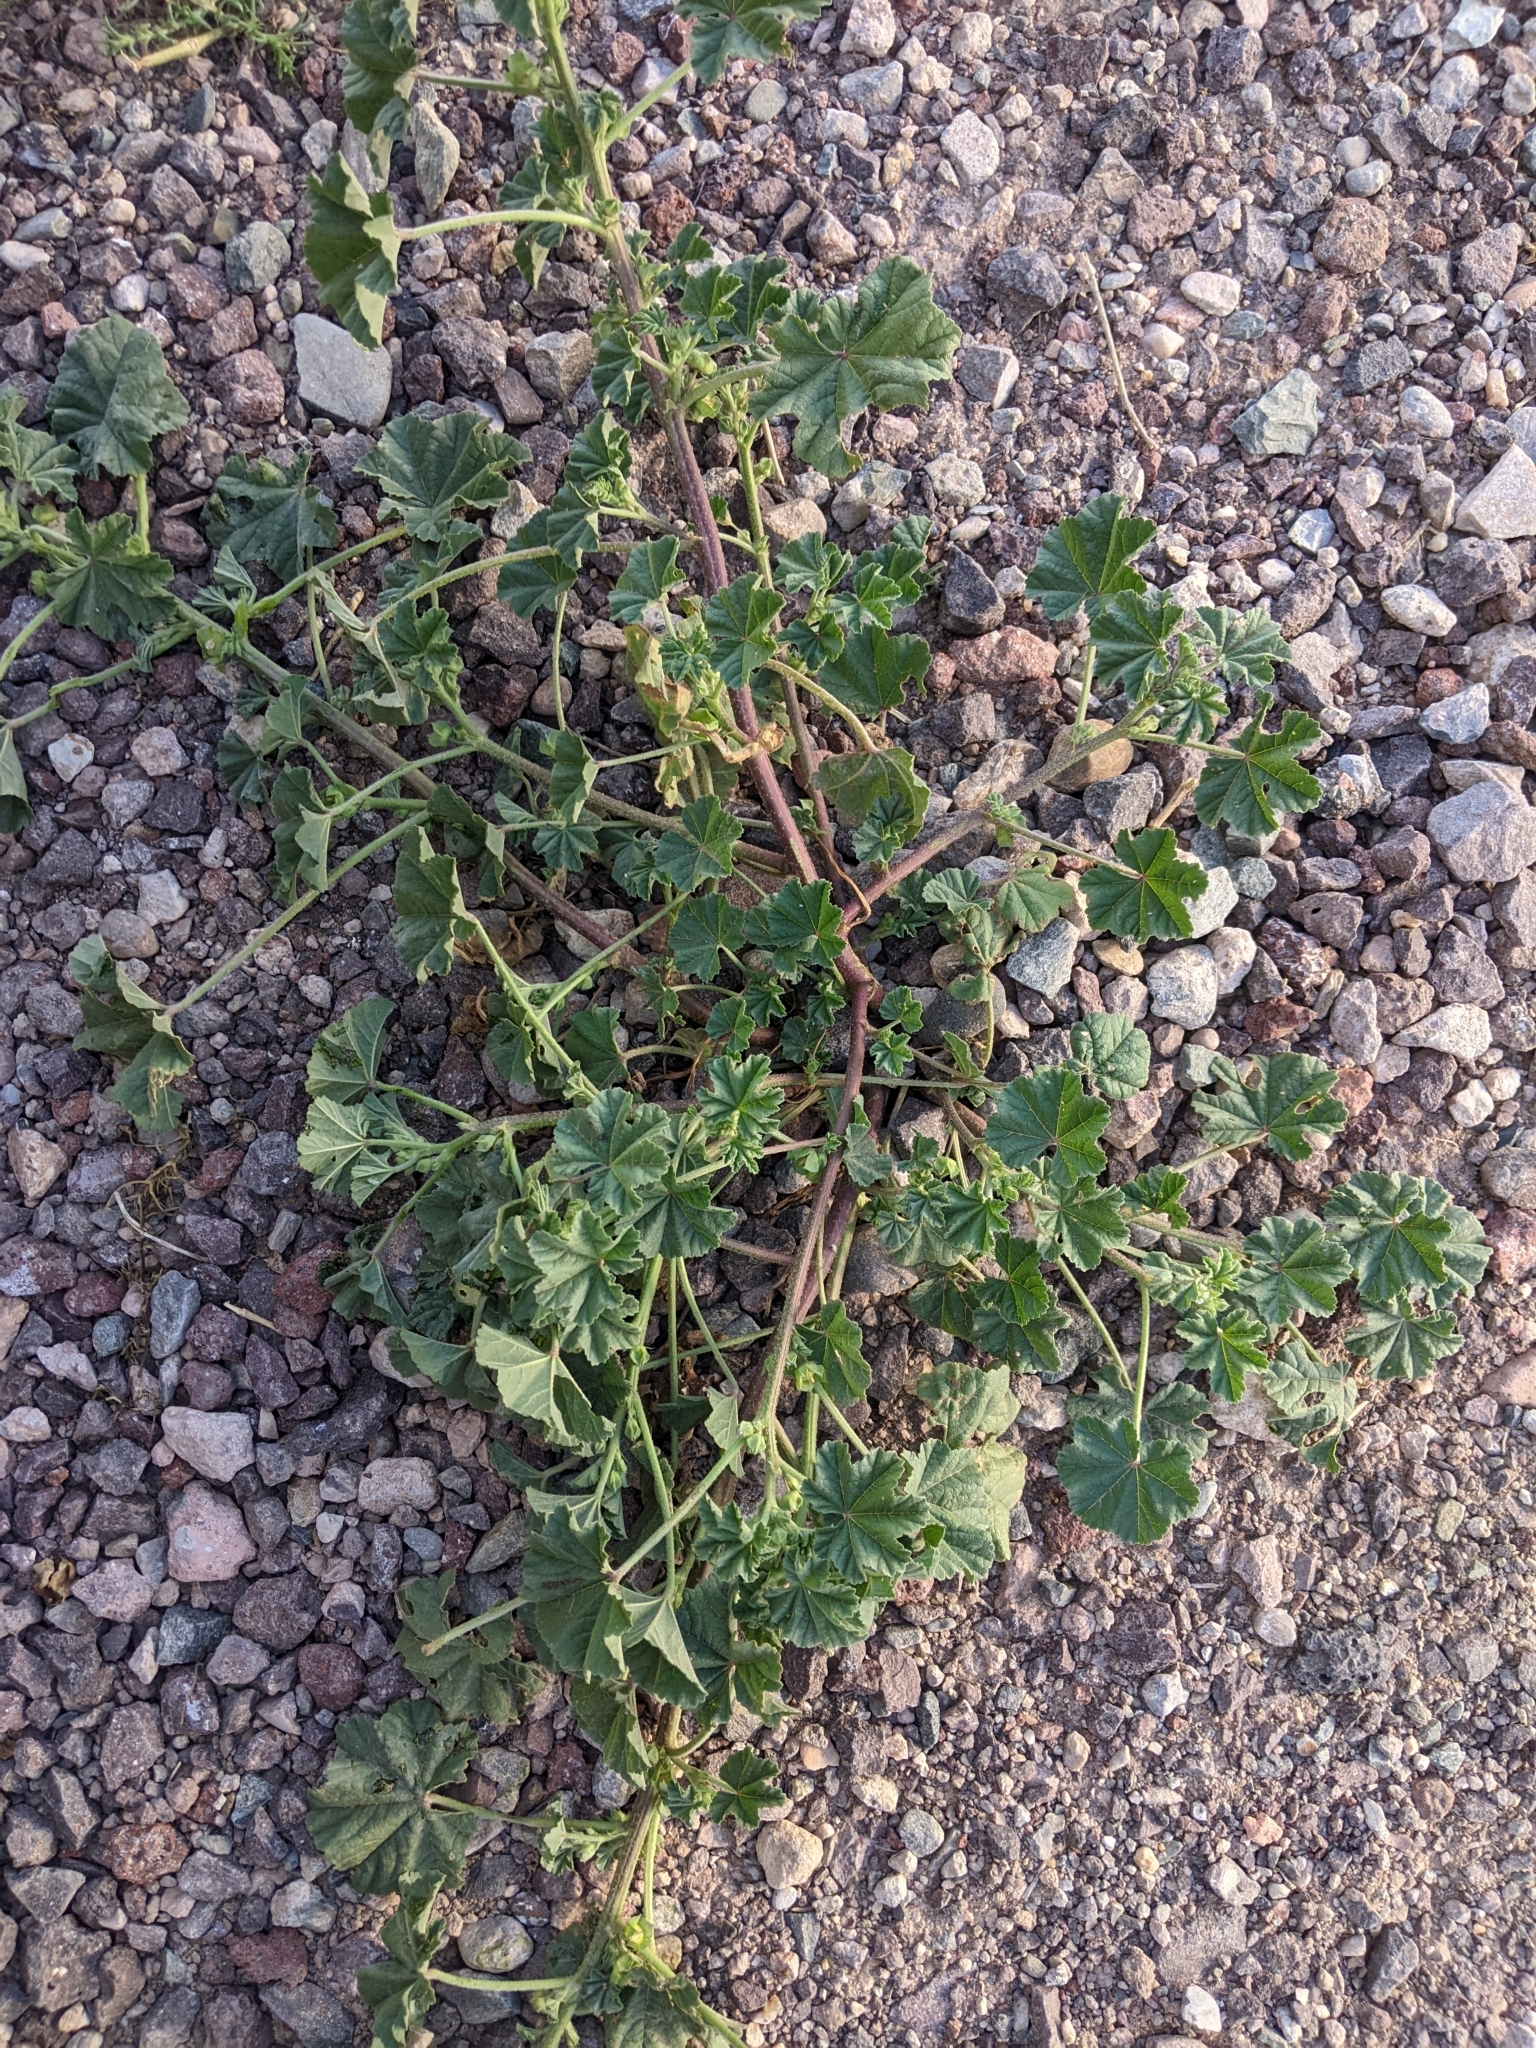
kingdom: Plantae
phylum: Tracheophyta
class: Magnoliopsida
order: Malvales
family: Malvaceae
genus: Malva
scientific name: Malva parviflora
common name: Least mallow
